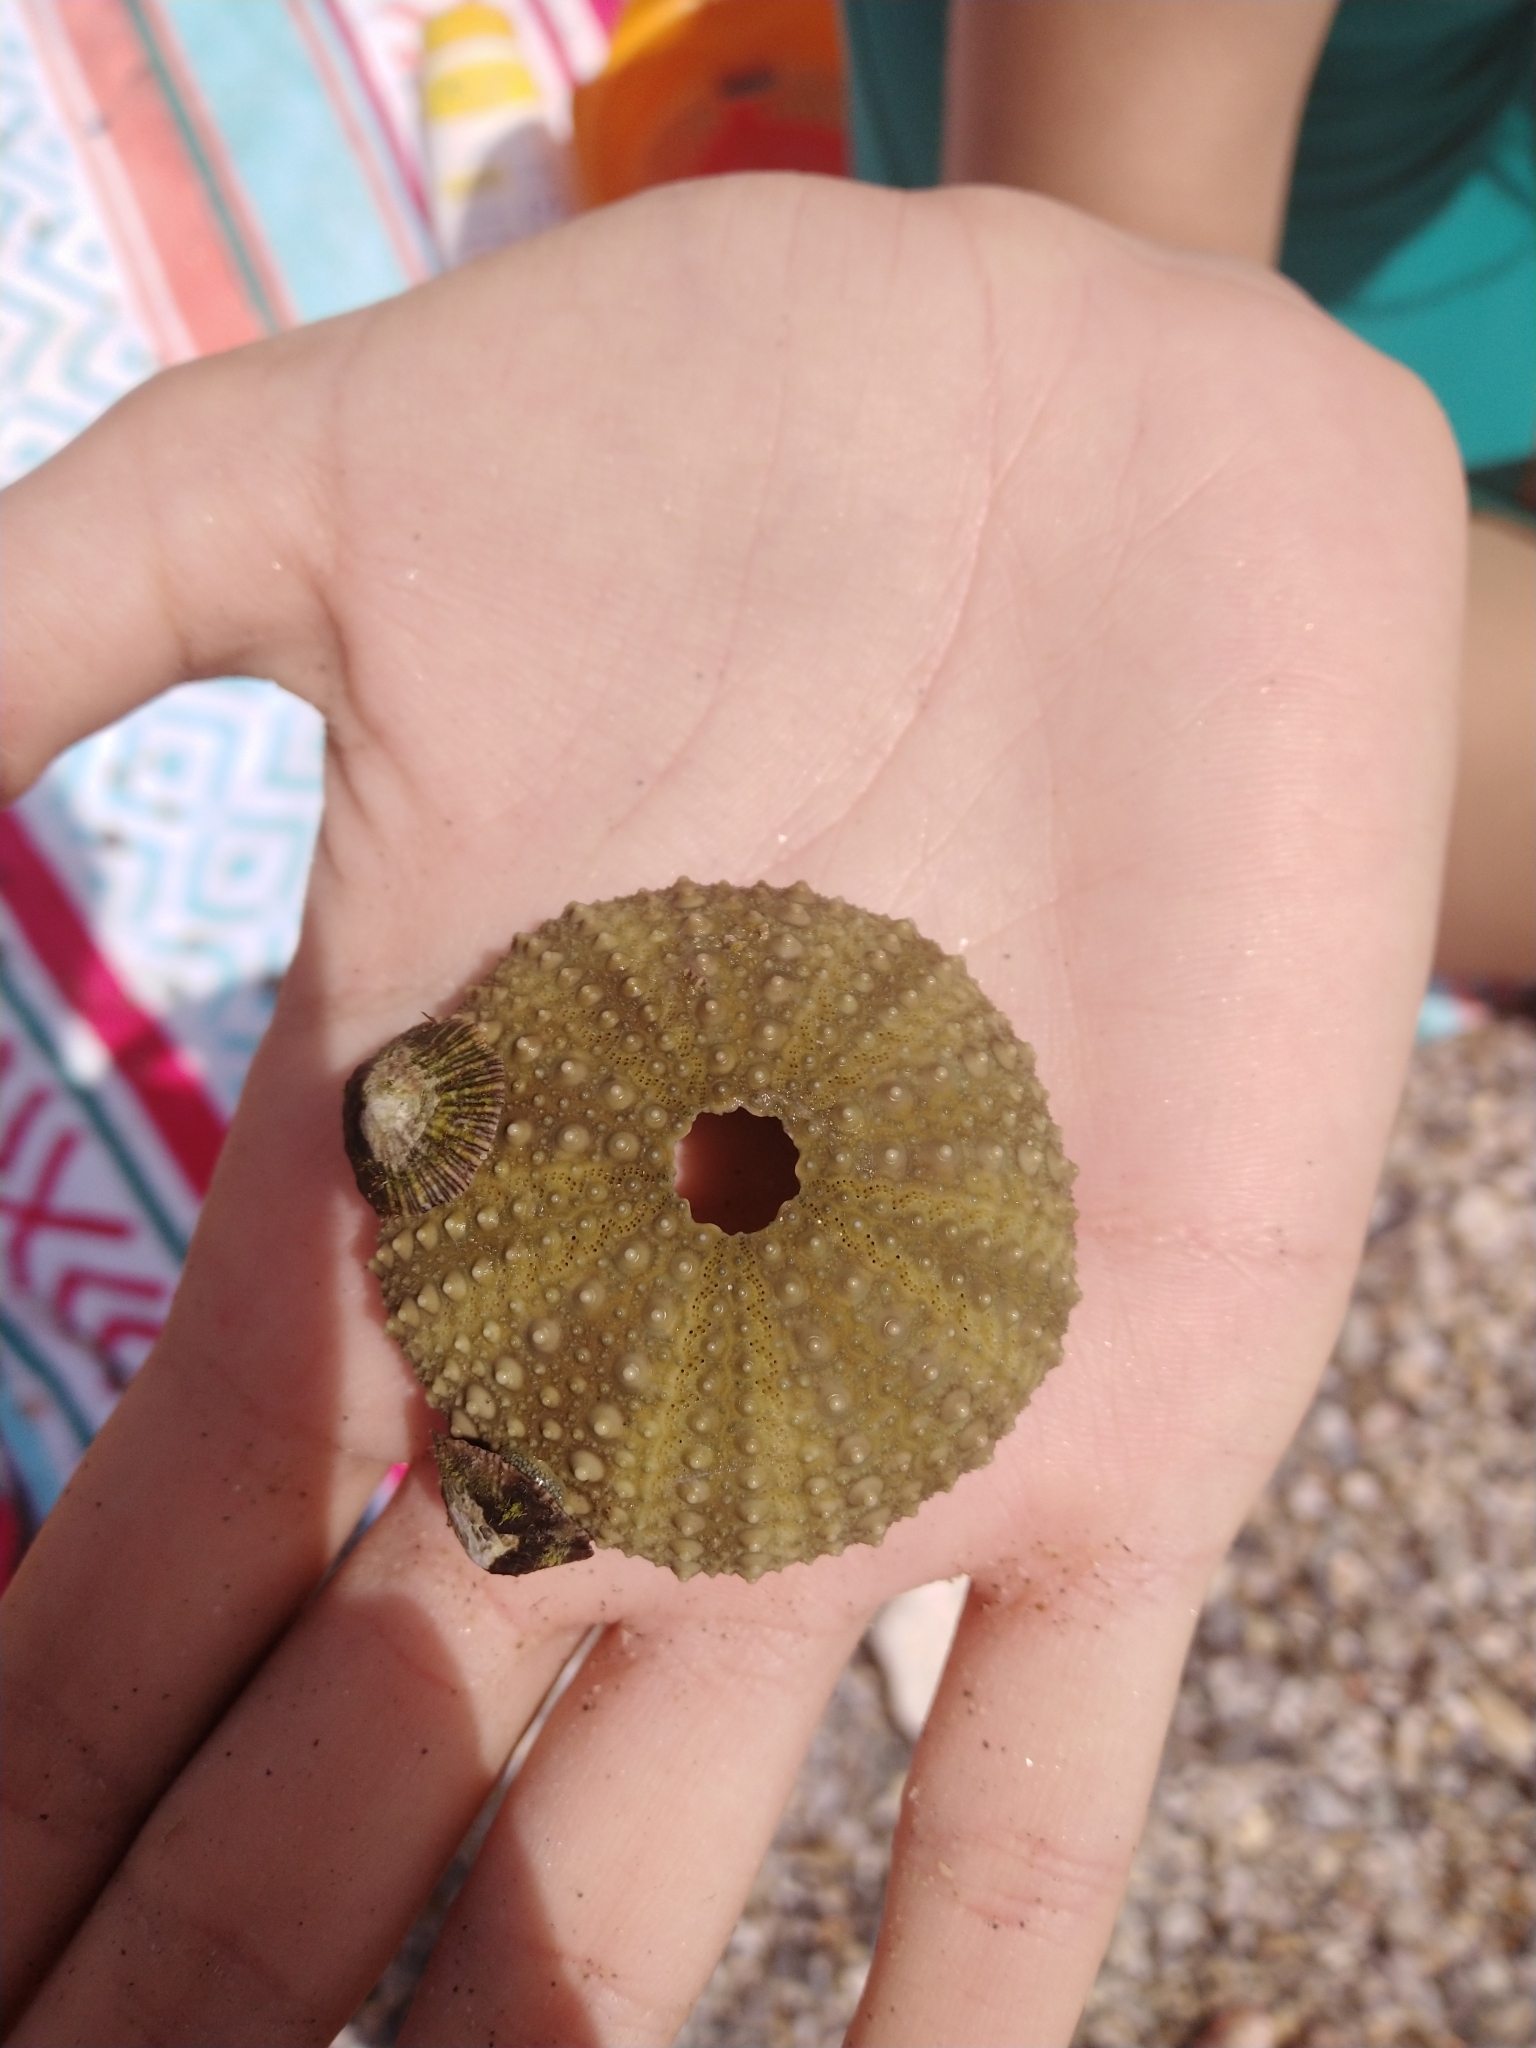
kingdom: Animalia
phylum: Echinodermata
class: Echinoidea
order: Camarodonta
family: Parechinidae
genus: Paracentrotus
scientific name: Paracentrotus lividus
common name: Purple sea urchin
